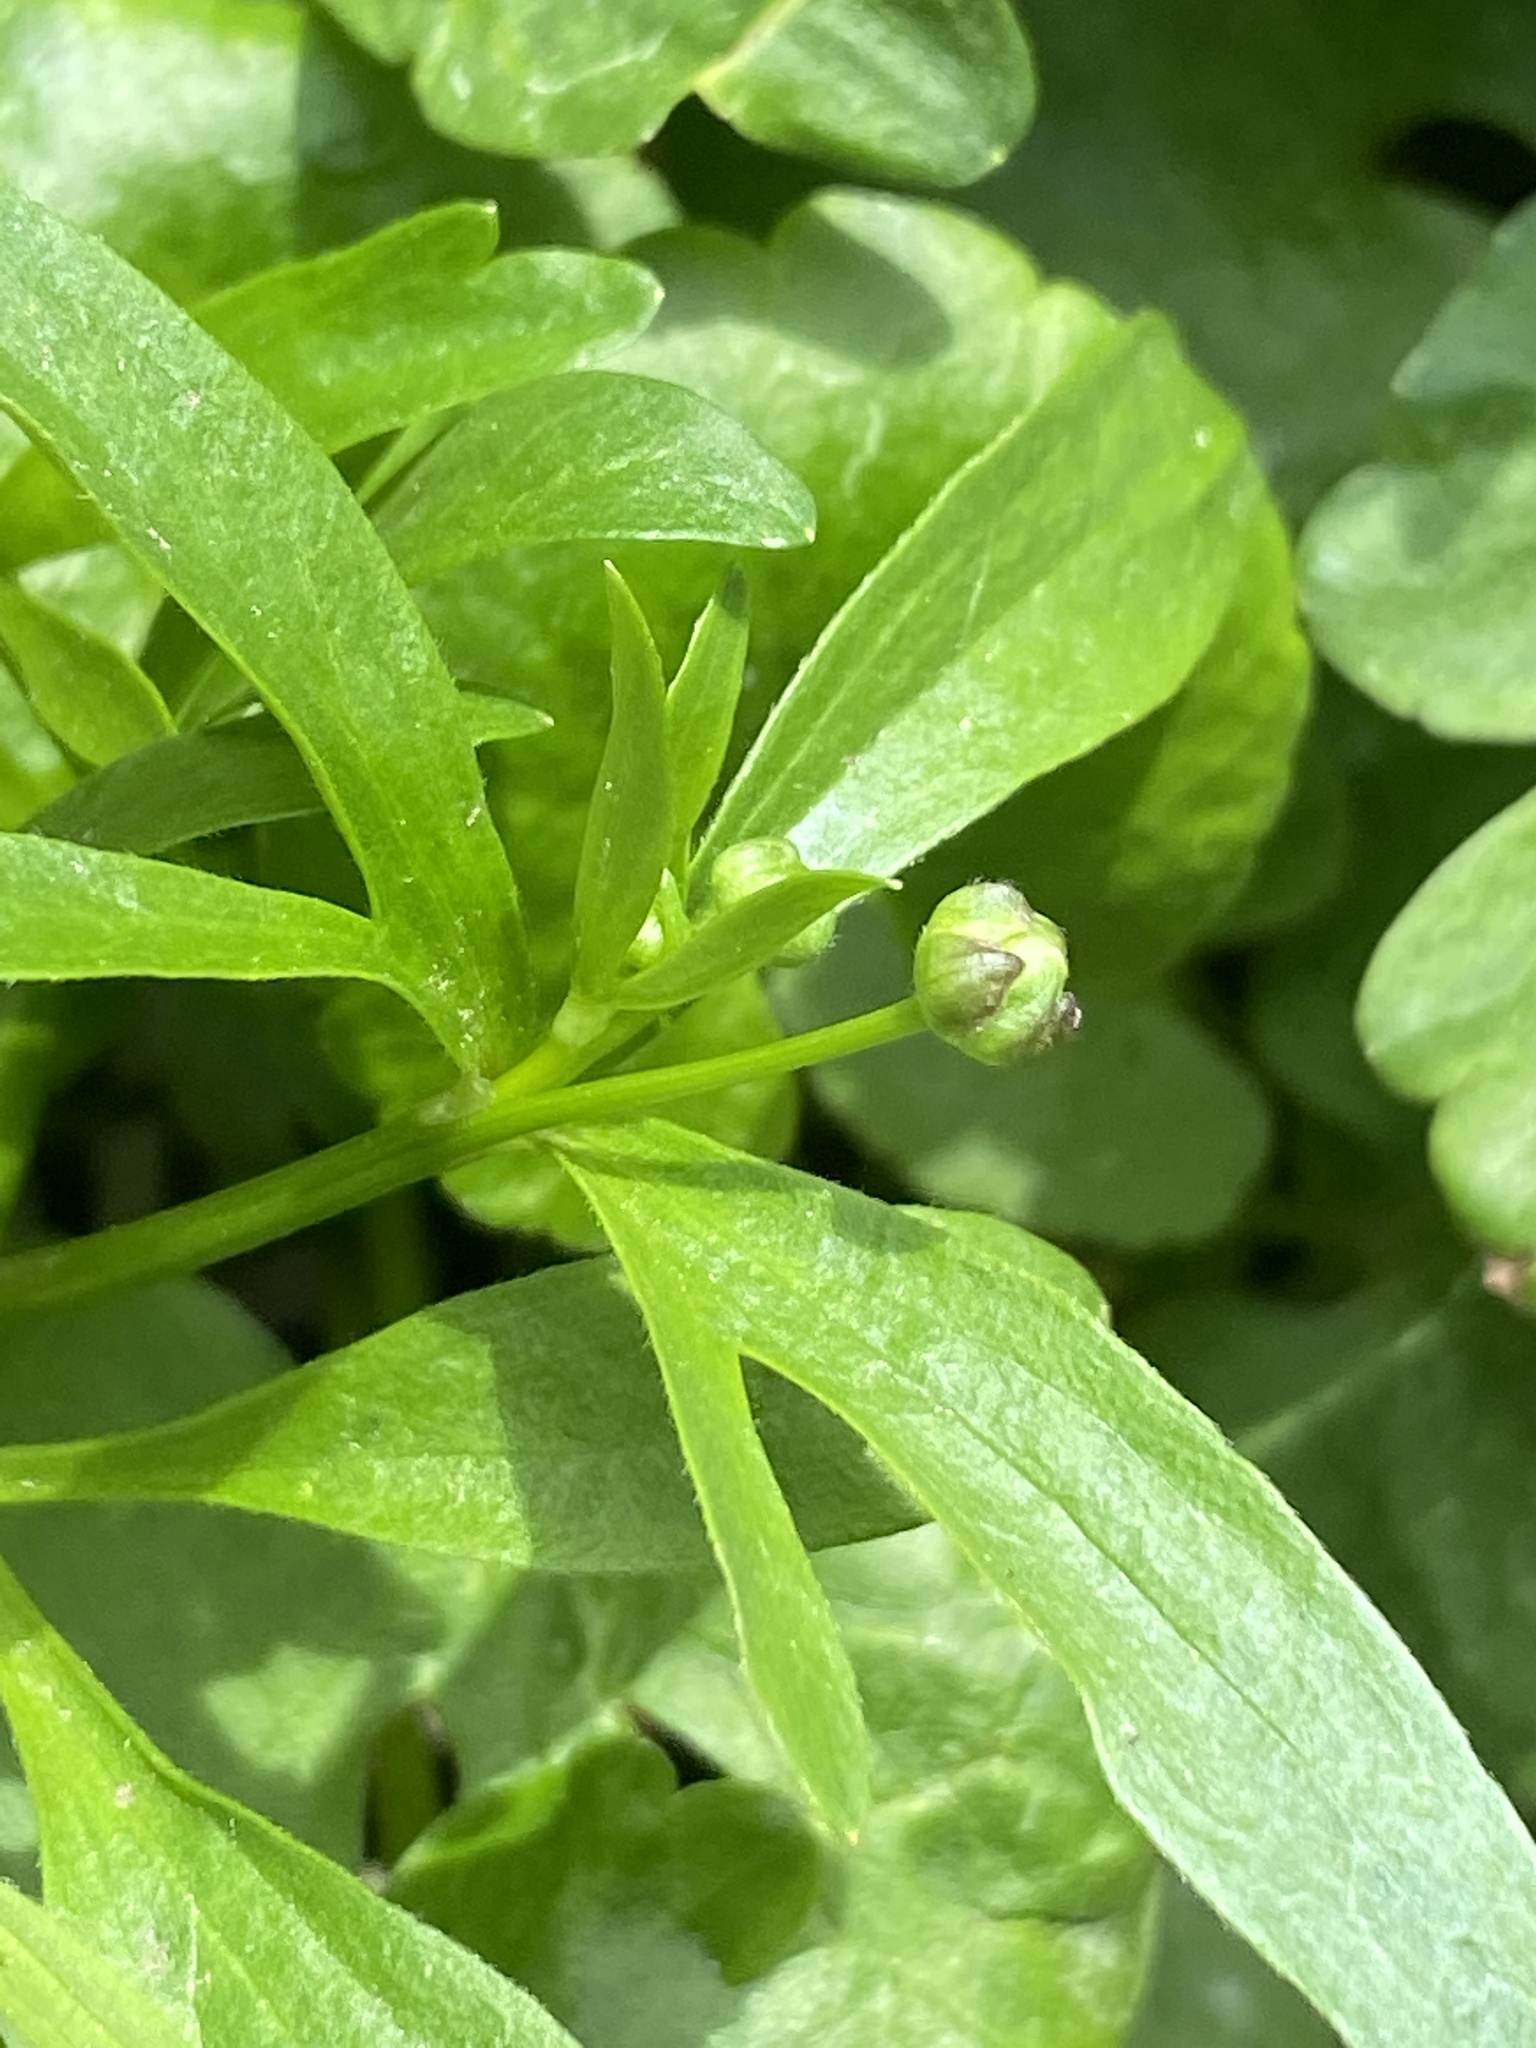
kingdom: Plantae
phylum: Tracheophyta
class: Magnoliopsida
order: Ranunculales
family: Ranunculaceae
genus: Ranunculus
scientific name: Ranunculus abortivus
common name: Early wood buttercup
